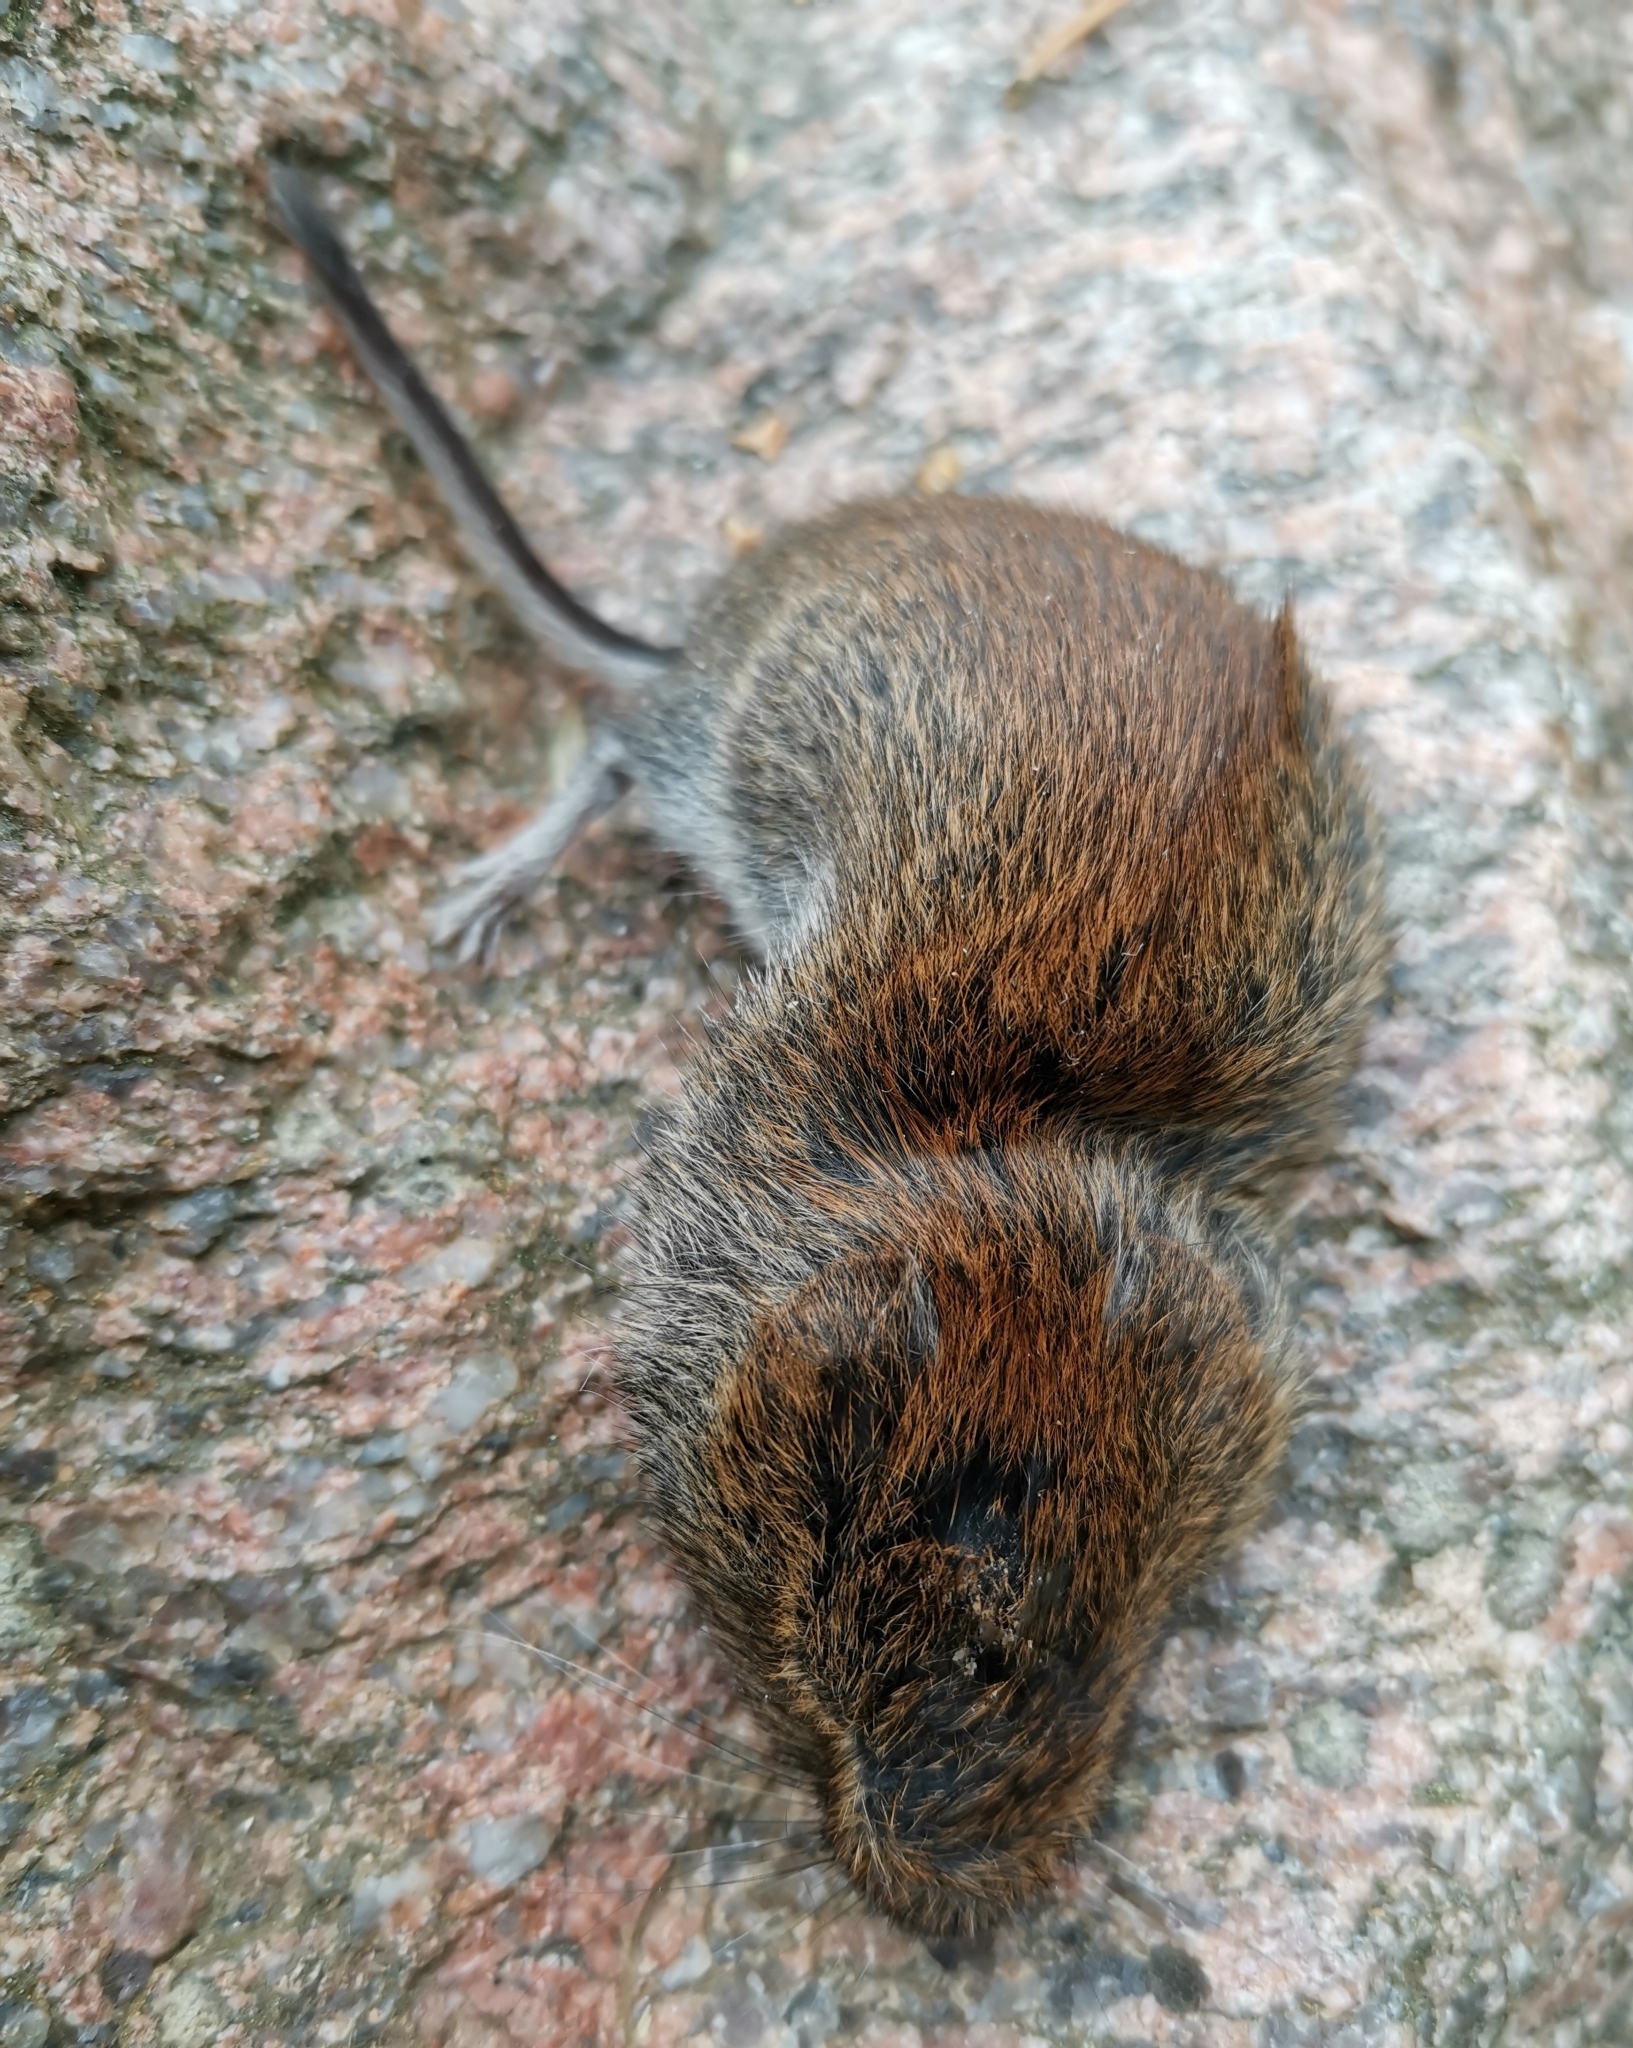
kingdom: Animalia
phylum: Chordata
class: Mammalia
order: Rodentia
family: Cricetidae
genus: Myodes
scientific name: Myodes glareolus
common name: Bank vole
